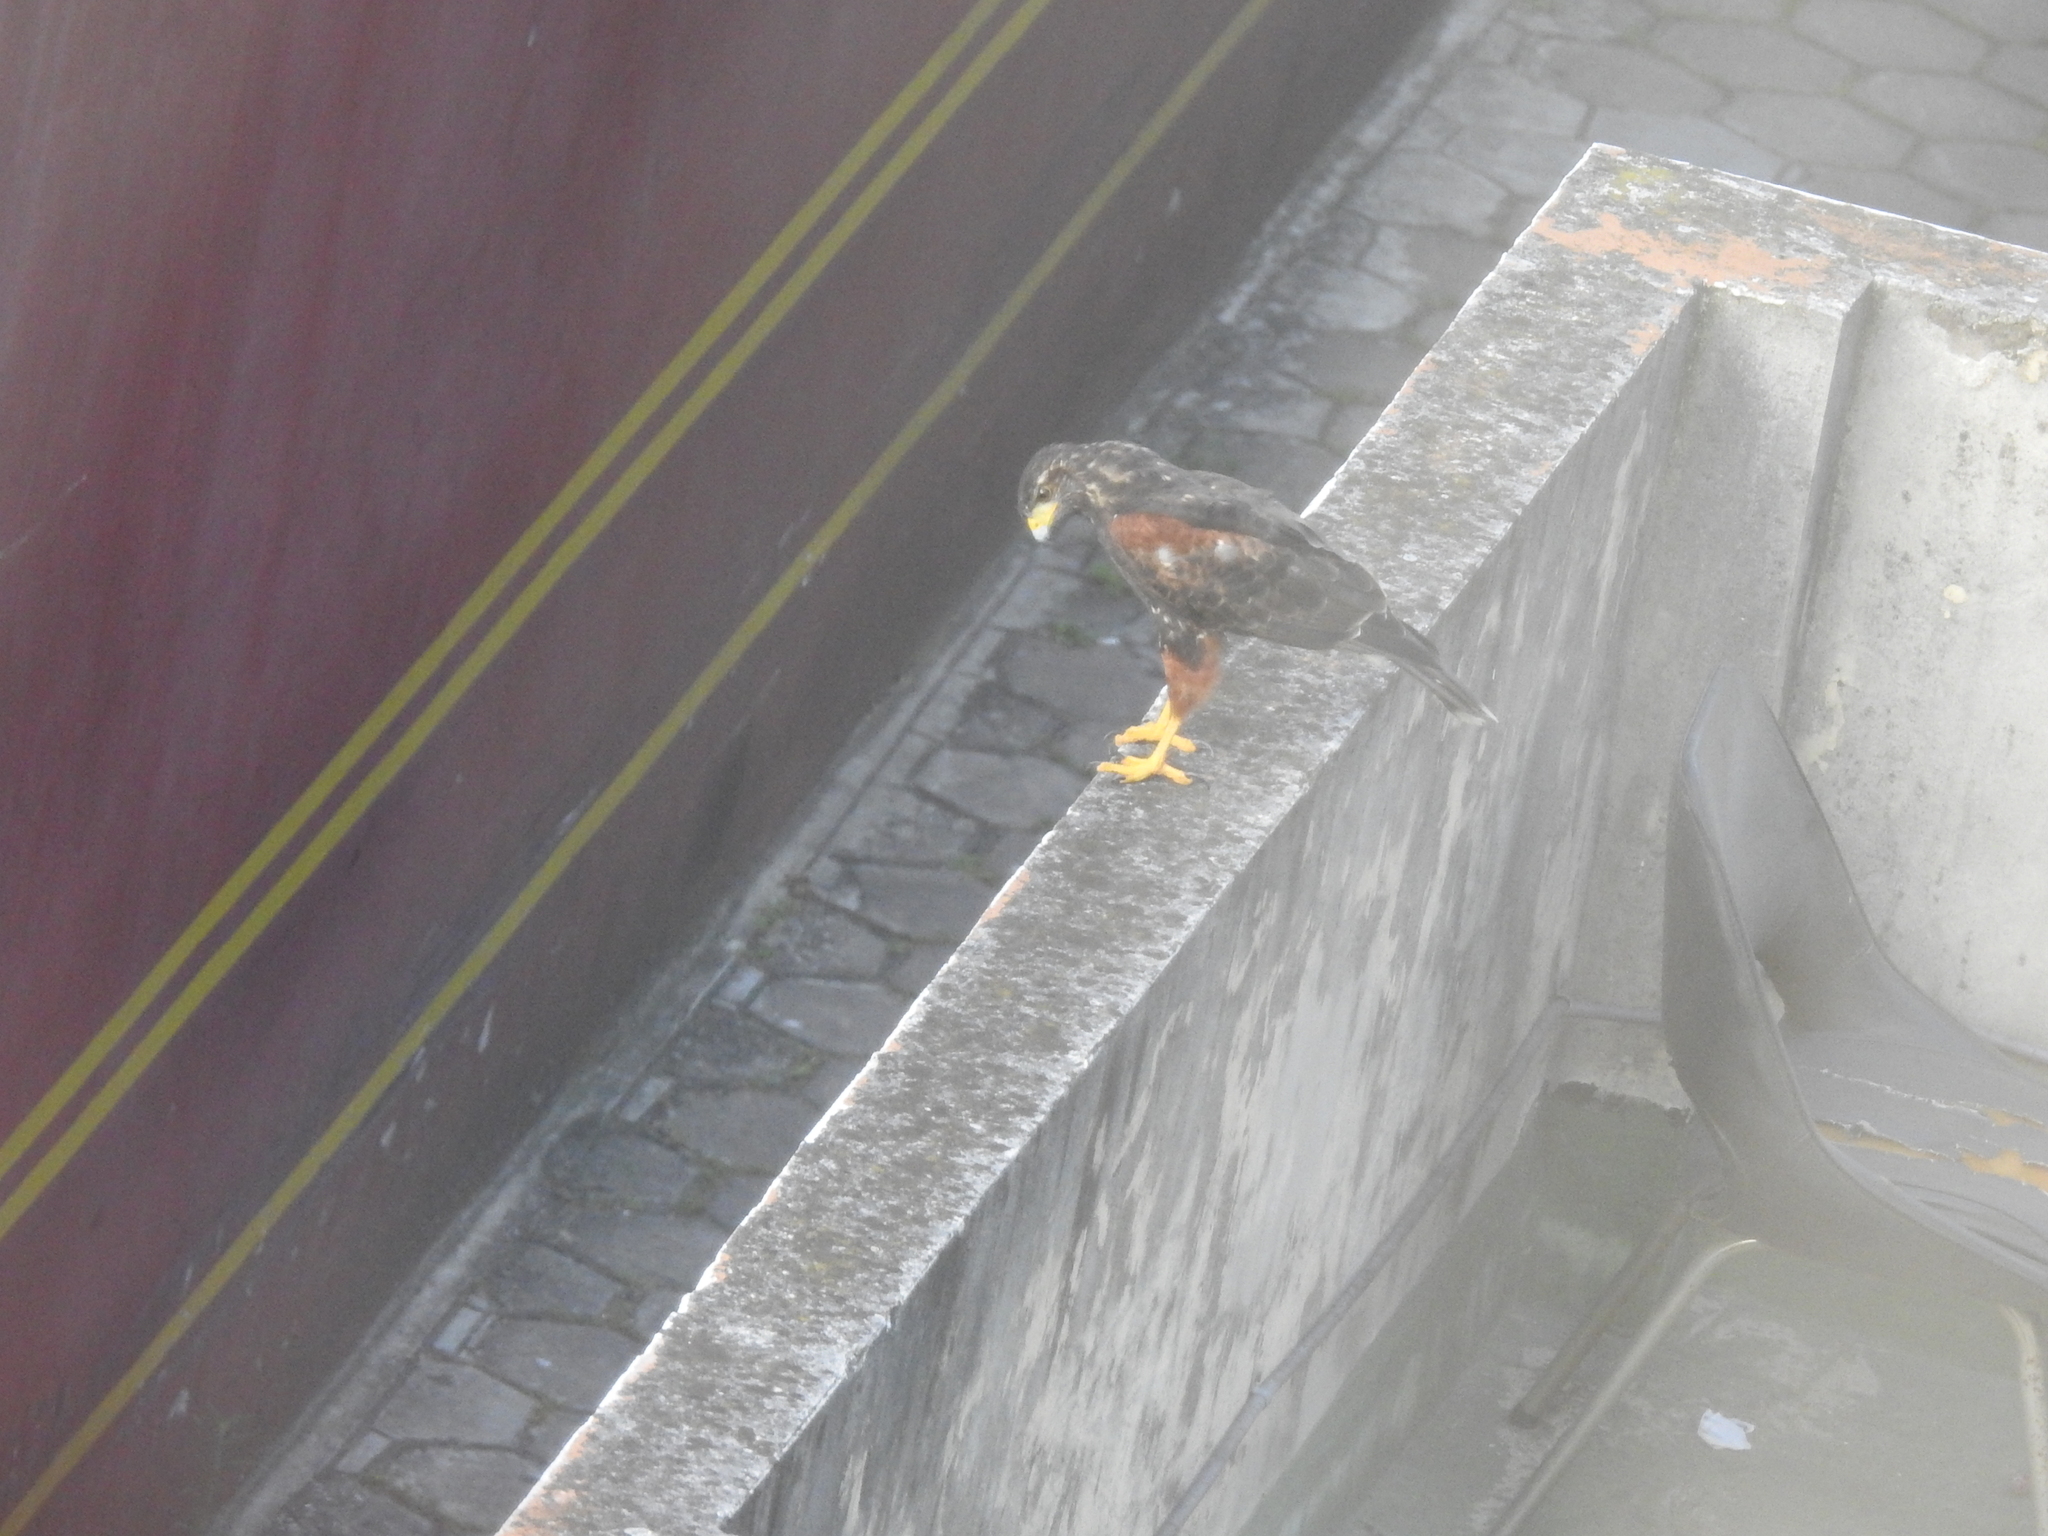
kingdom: Animalia
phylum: Chordata
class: Aves
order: Accipitriformes
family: Accipitridae
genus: Parabuteo
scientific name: Parabuteo unicinctus
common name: Harris's hawk
